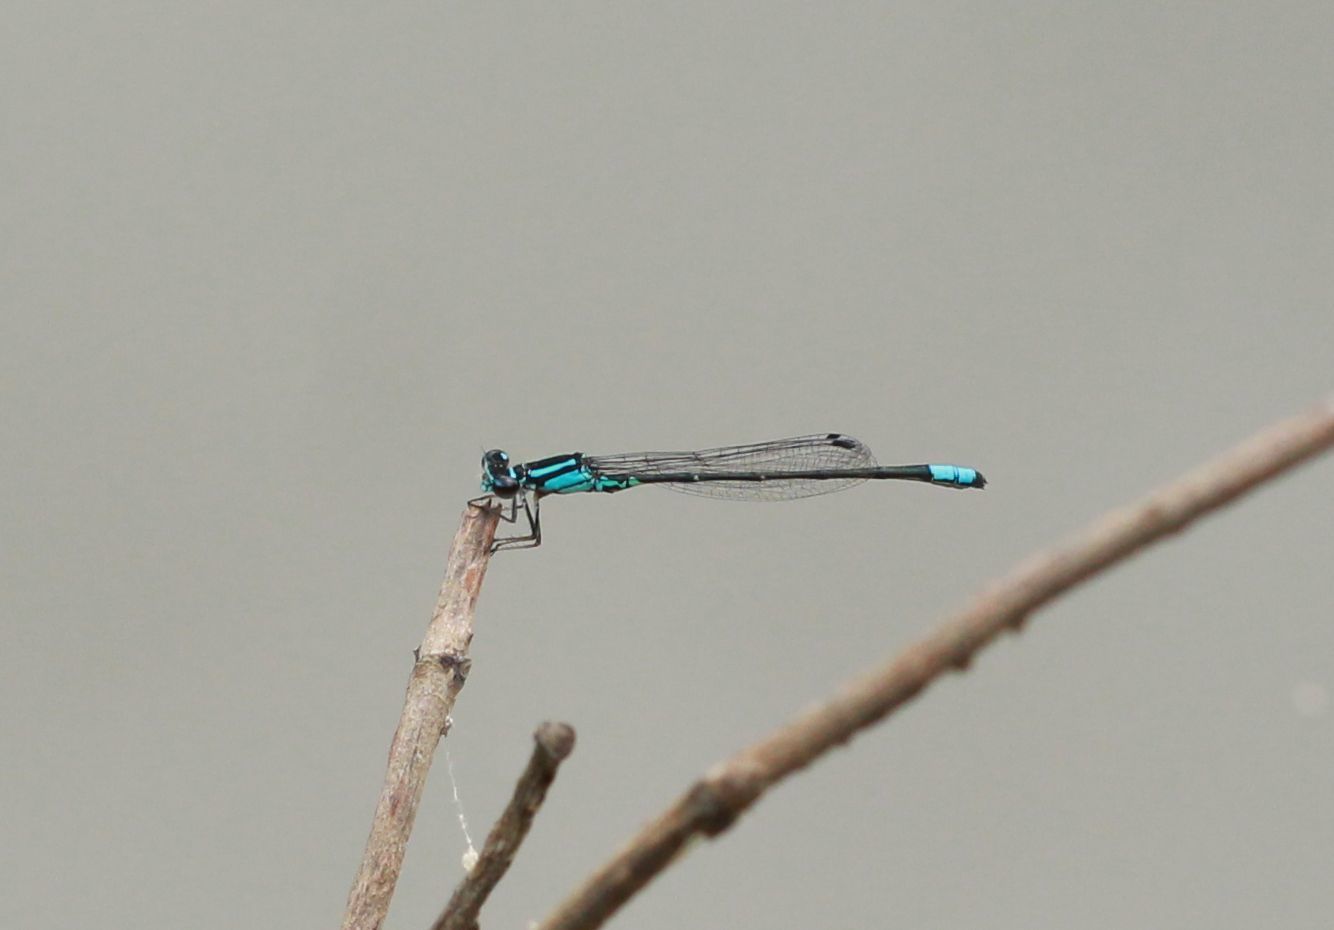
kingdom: Animalia
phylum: Arthropoda
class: Insecta
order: Odonata
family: Coenagrionidae
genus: Enallagma
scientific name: Enallagma geminatum
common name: Skimming bluet
